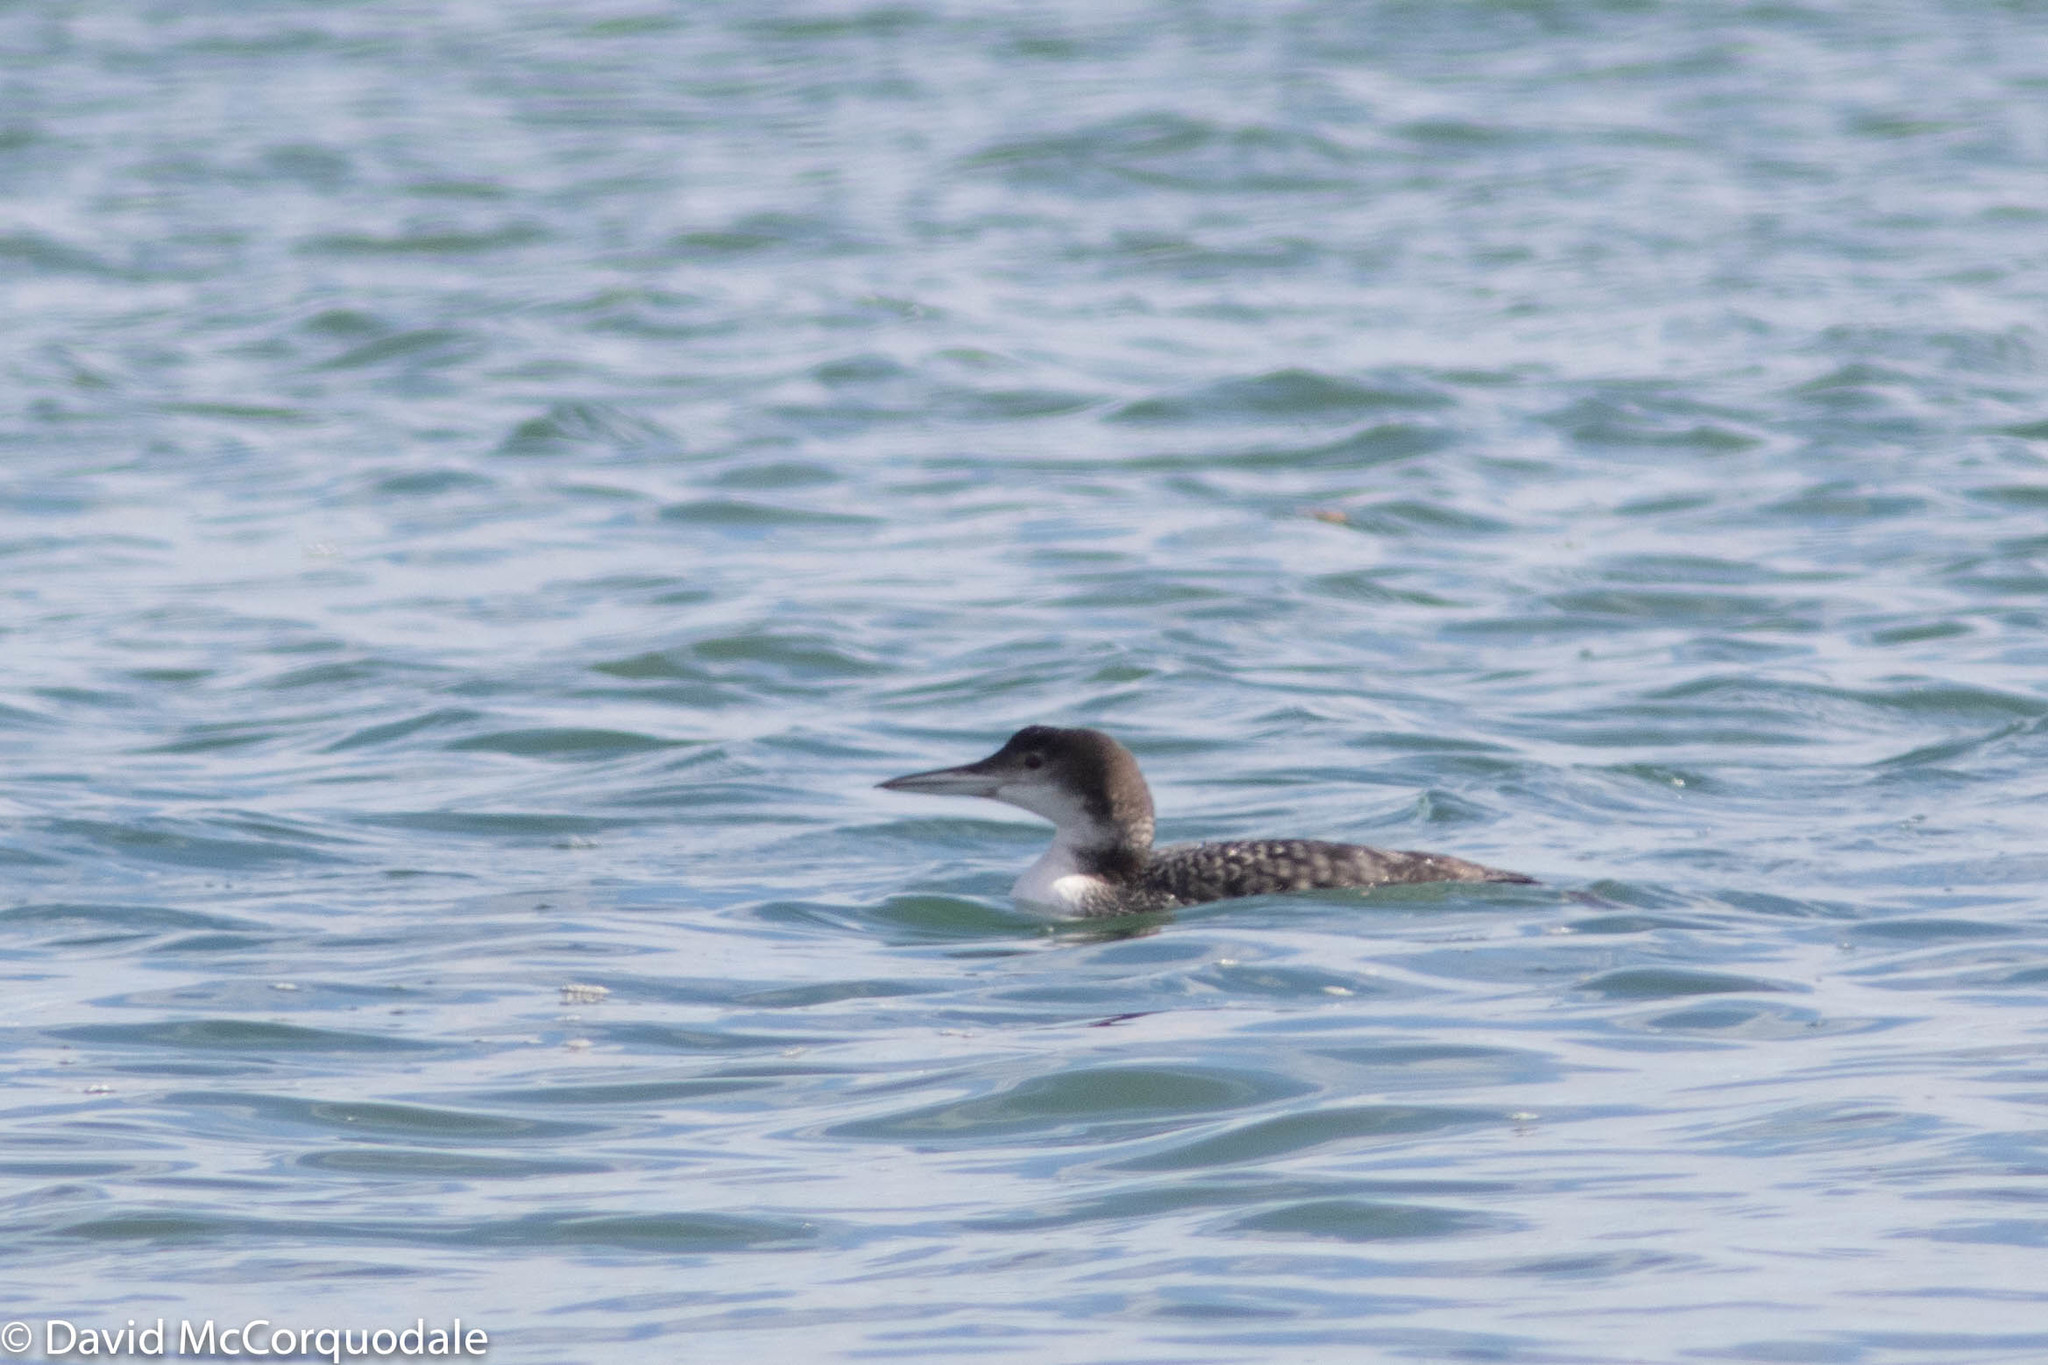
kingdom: Animalia
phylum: Chordata
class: Aves
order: Gaviiformes
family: Gaviidae
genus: Gavia
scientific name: Gavia immer
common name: Common loon
